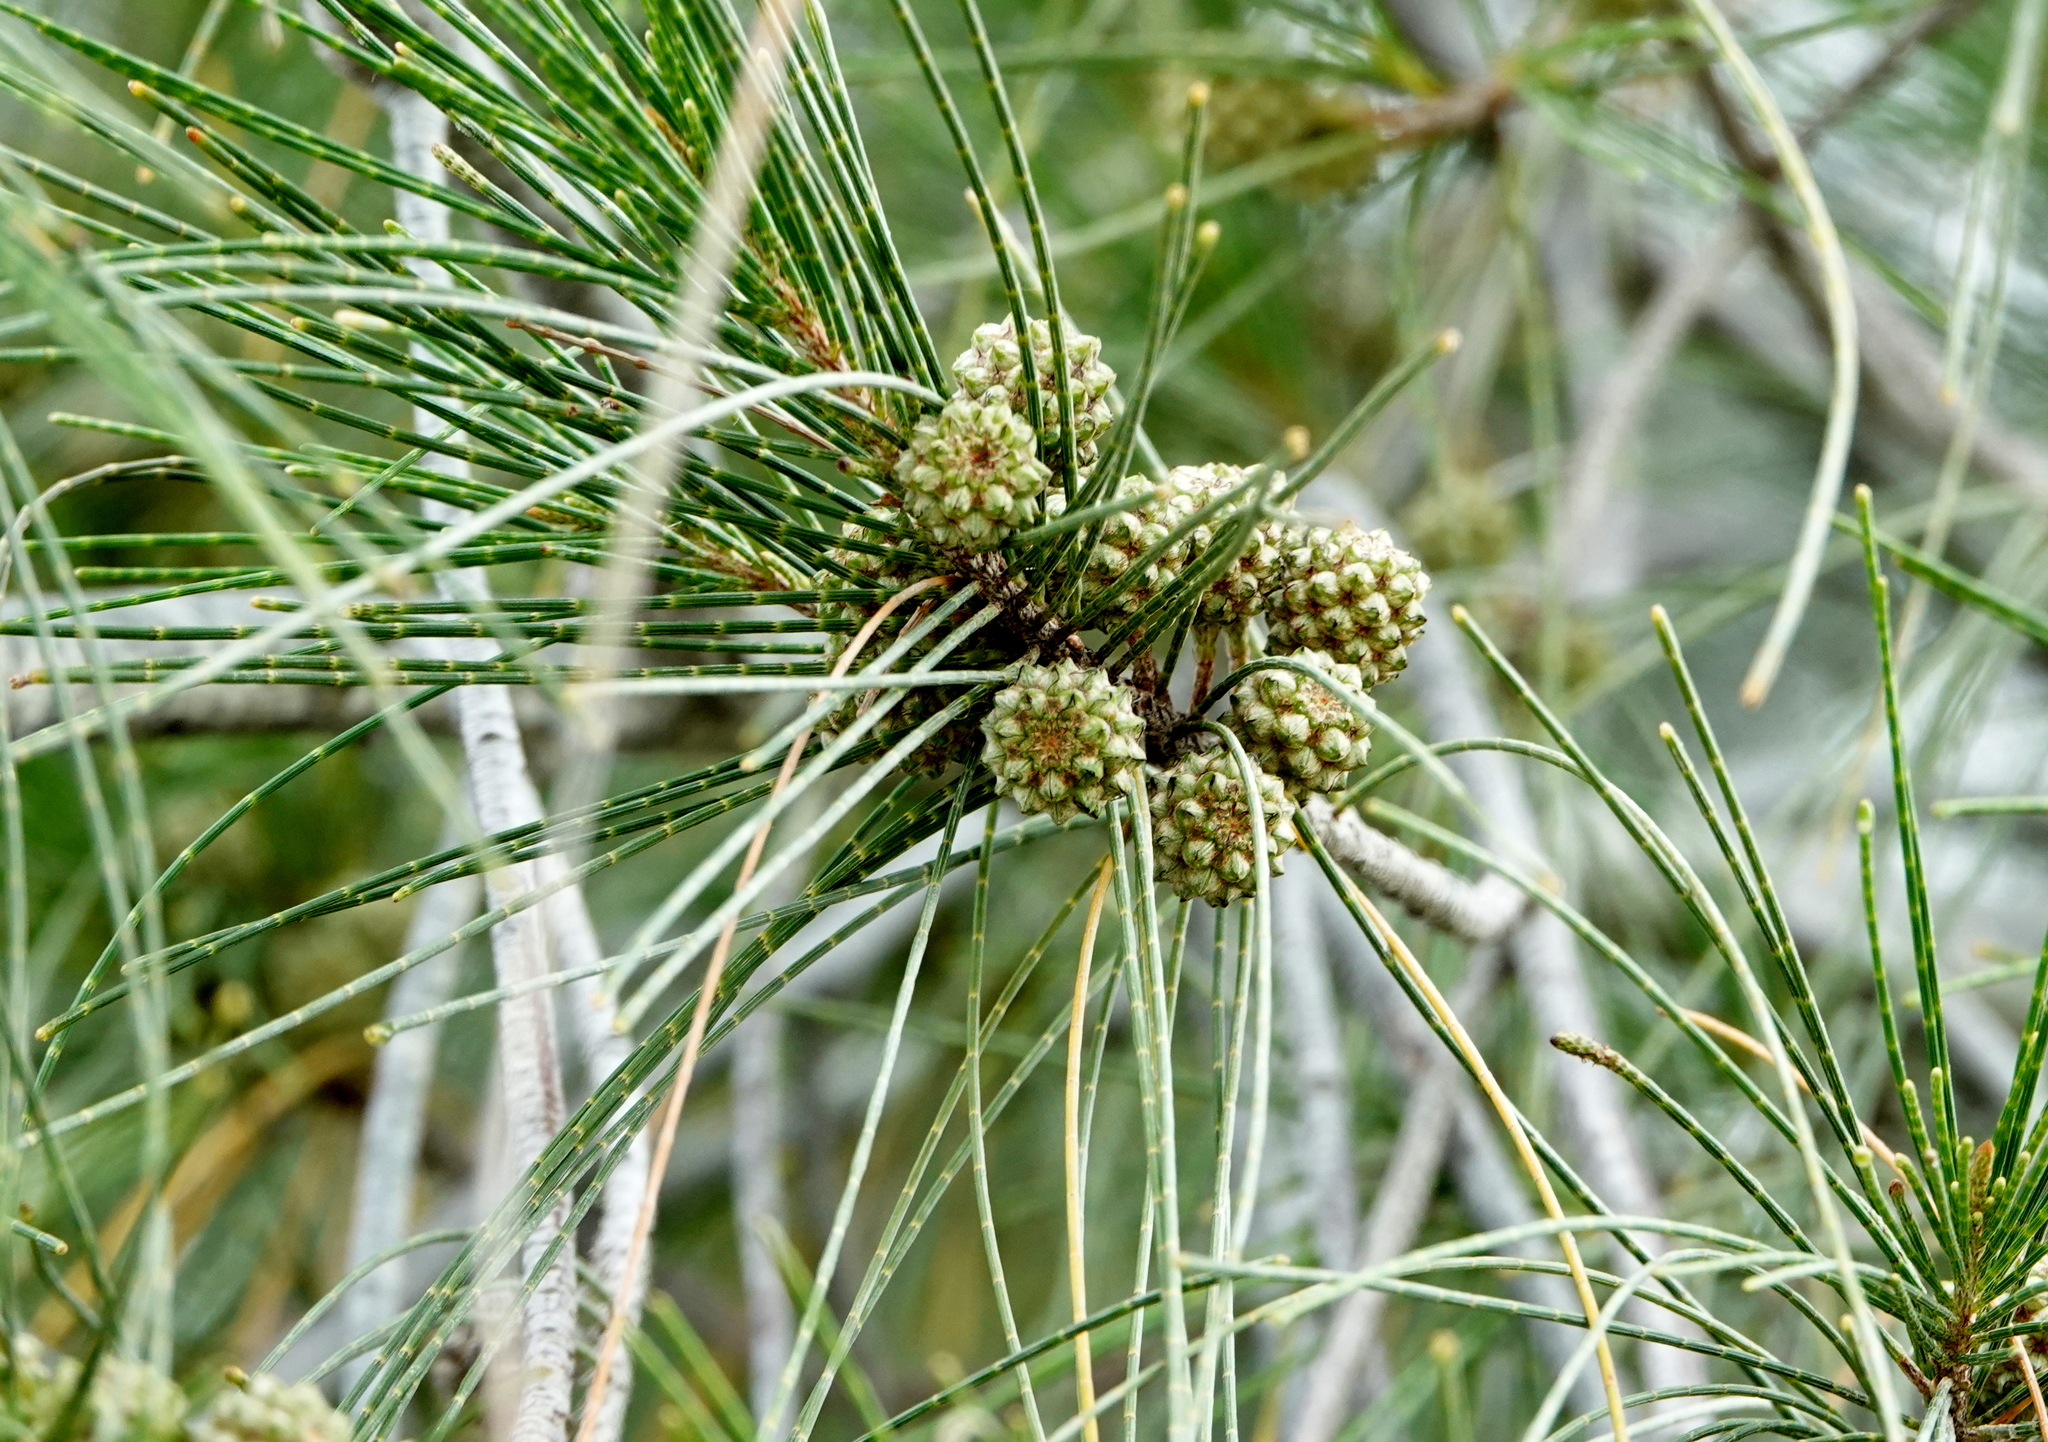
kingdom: Plantae
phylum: Tracheophyta
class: Magnoliopsida
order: Fagales
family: Casuarinaceae
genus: Casuarina
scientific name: Casuarina cunninghamiana
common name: River sheoak
